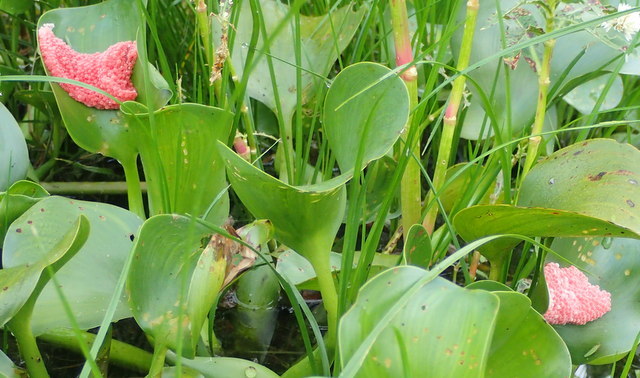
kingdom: Animalia
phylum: Mollusca
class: Gastropoda
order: Architaenioglossa
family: Ampullariidae
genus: Pomacea
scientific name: Pomacea maculata
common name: Giant applesnail
